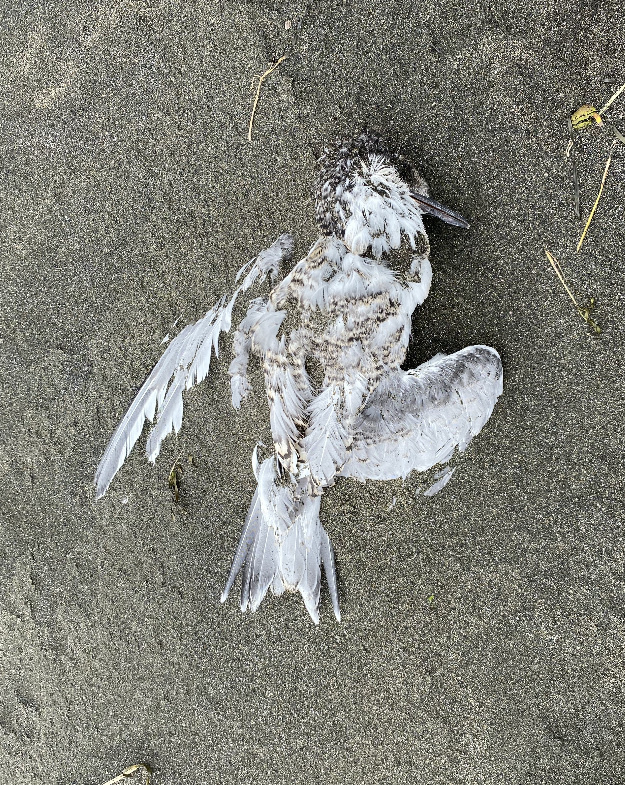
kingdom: Animalia
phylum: Chordata
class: Aves
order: Charadriiformes
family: Laridae
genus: Sterna
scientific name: Sterna striata
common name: White-fronted tern
